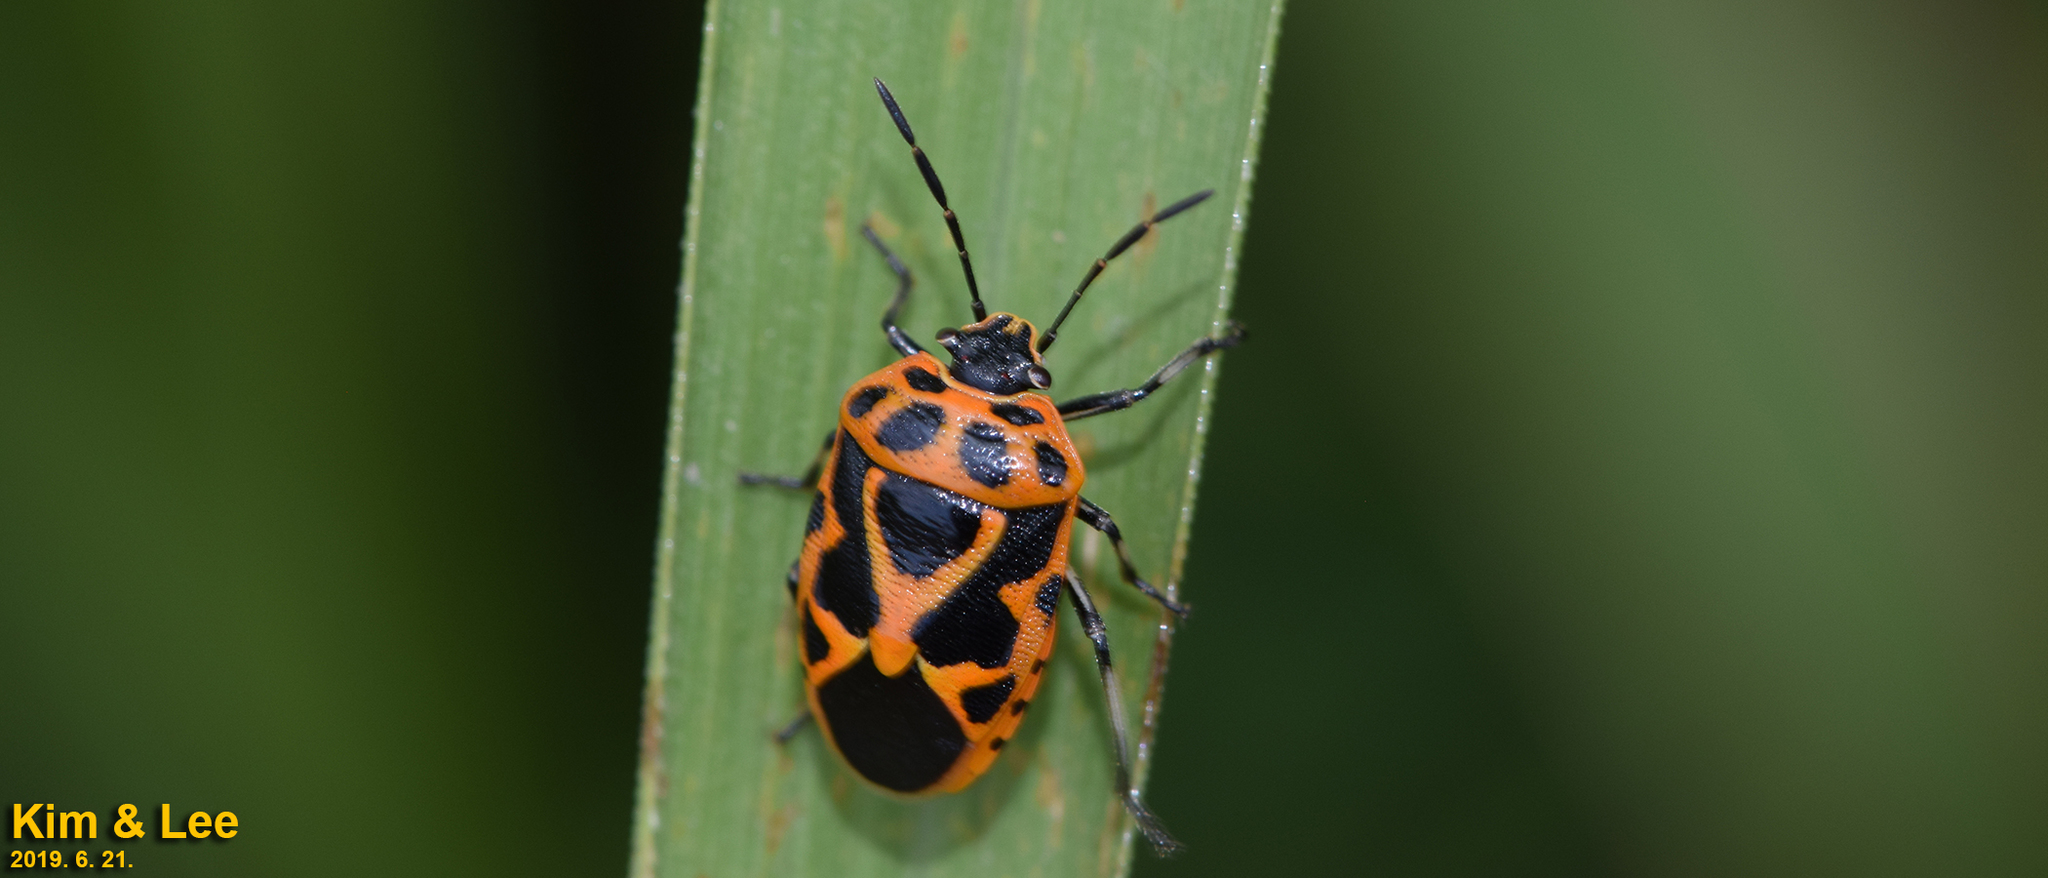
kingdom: Animalia
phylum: Arthropoda
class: Insecta
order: Hemiptera
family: Pentatomidae
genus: Eurydema
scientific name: Eurydema dominulus
